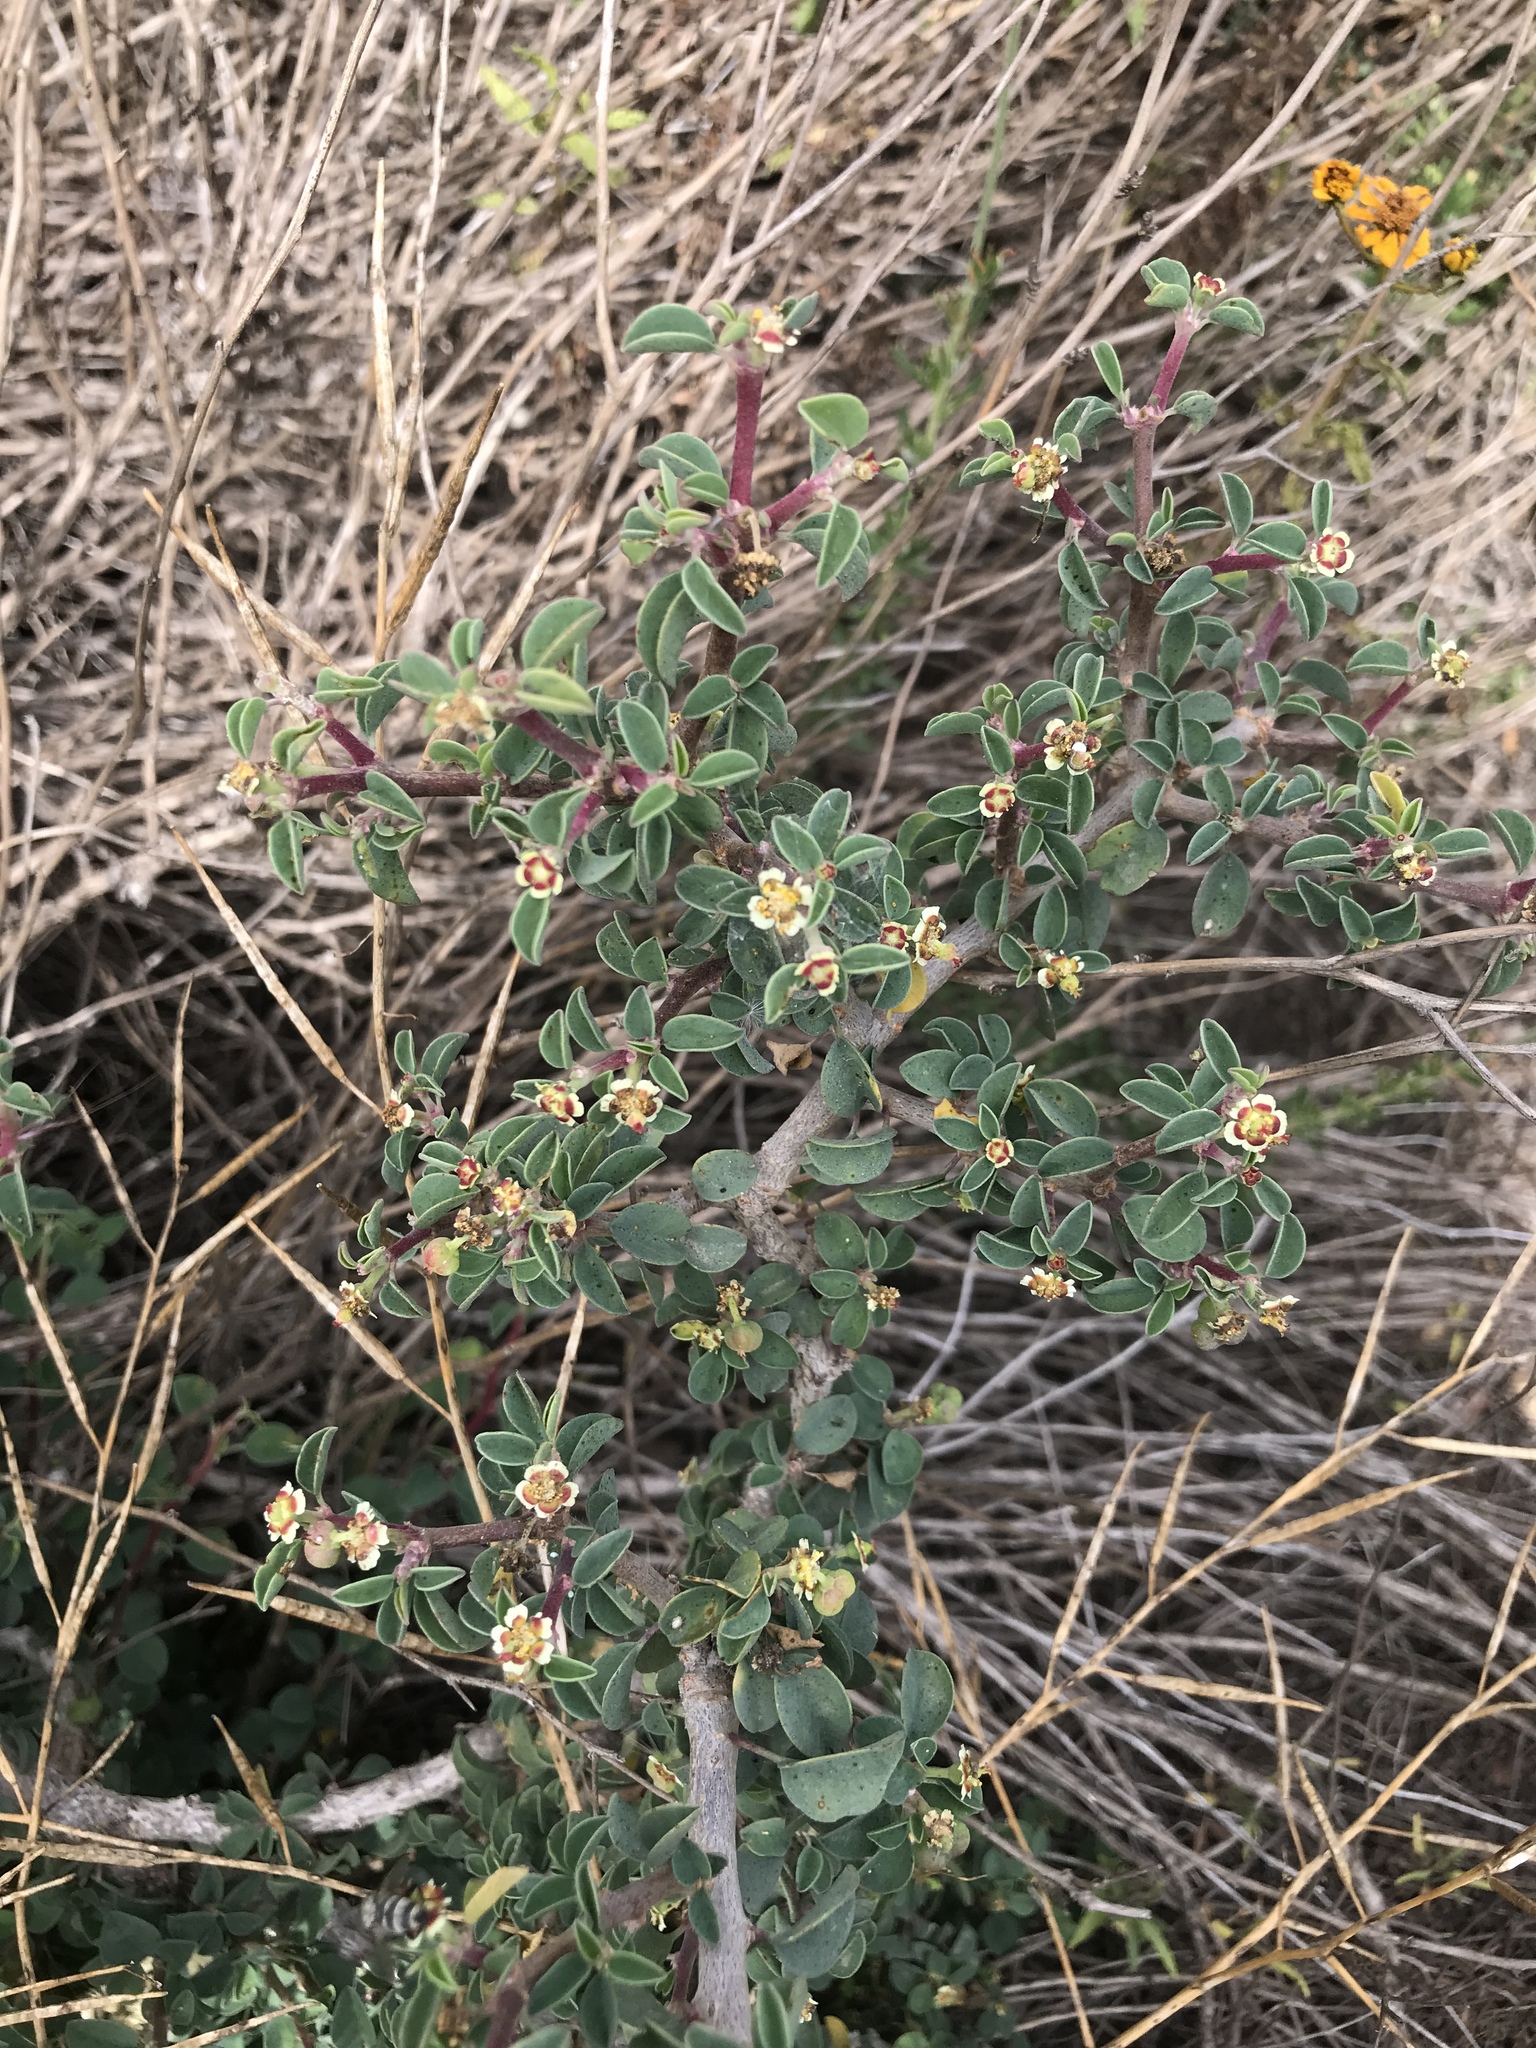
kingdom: Plantae
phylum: Tracheophyta
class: Magnoliopsida
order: Malpighiales
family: Euphorbiaceae
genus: Euphorbia
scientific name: Euphorbia misera
